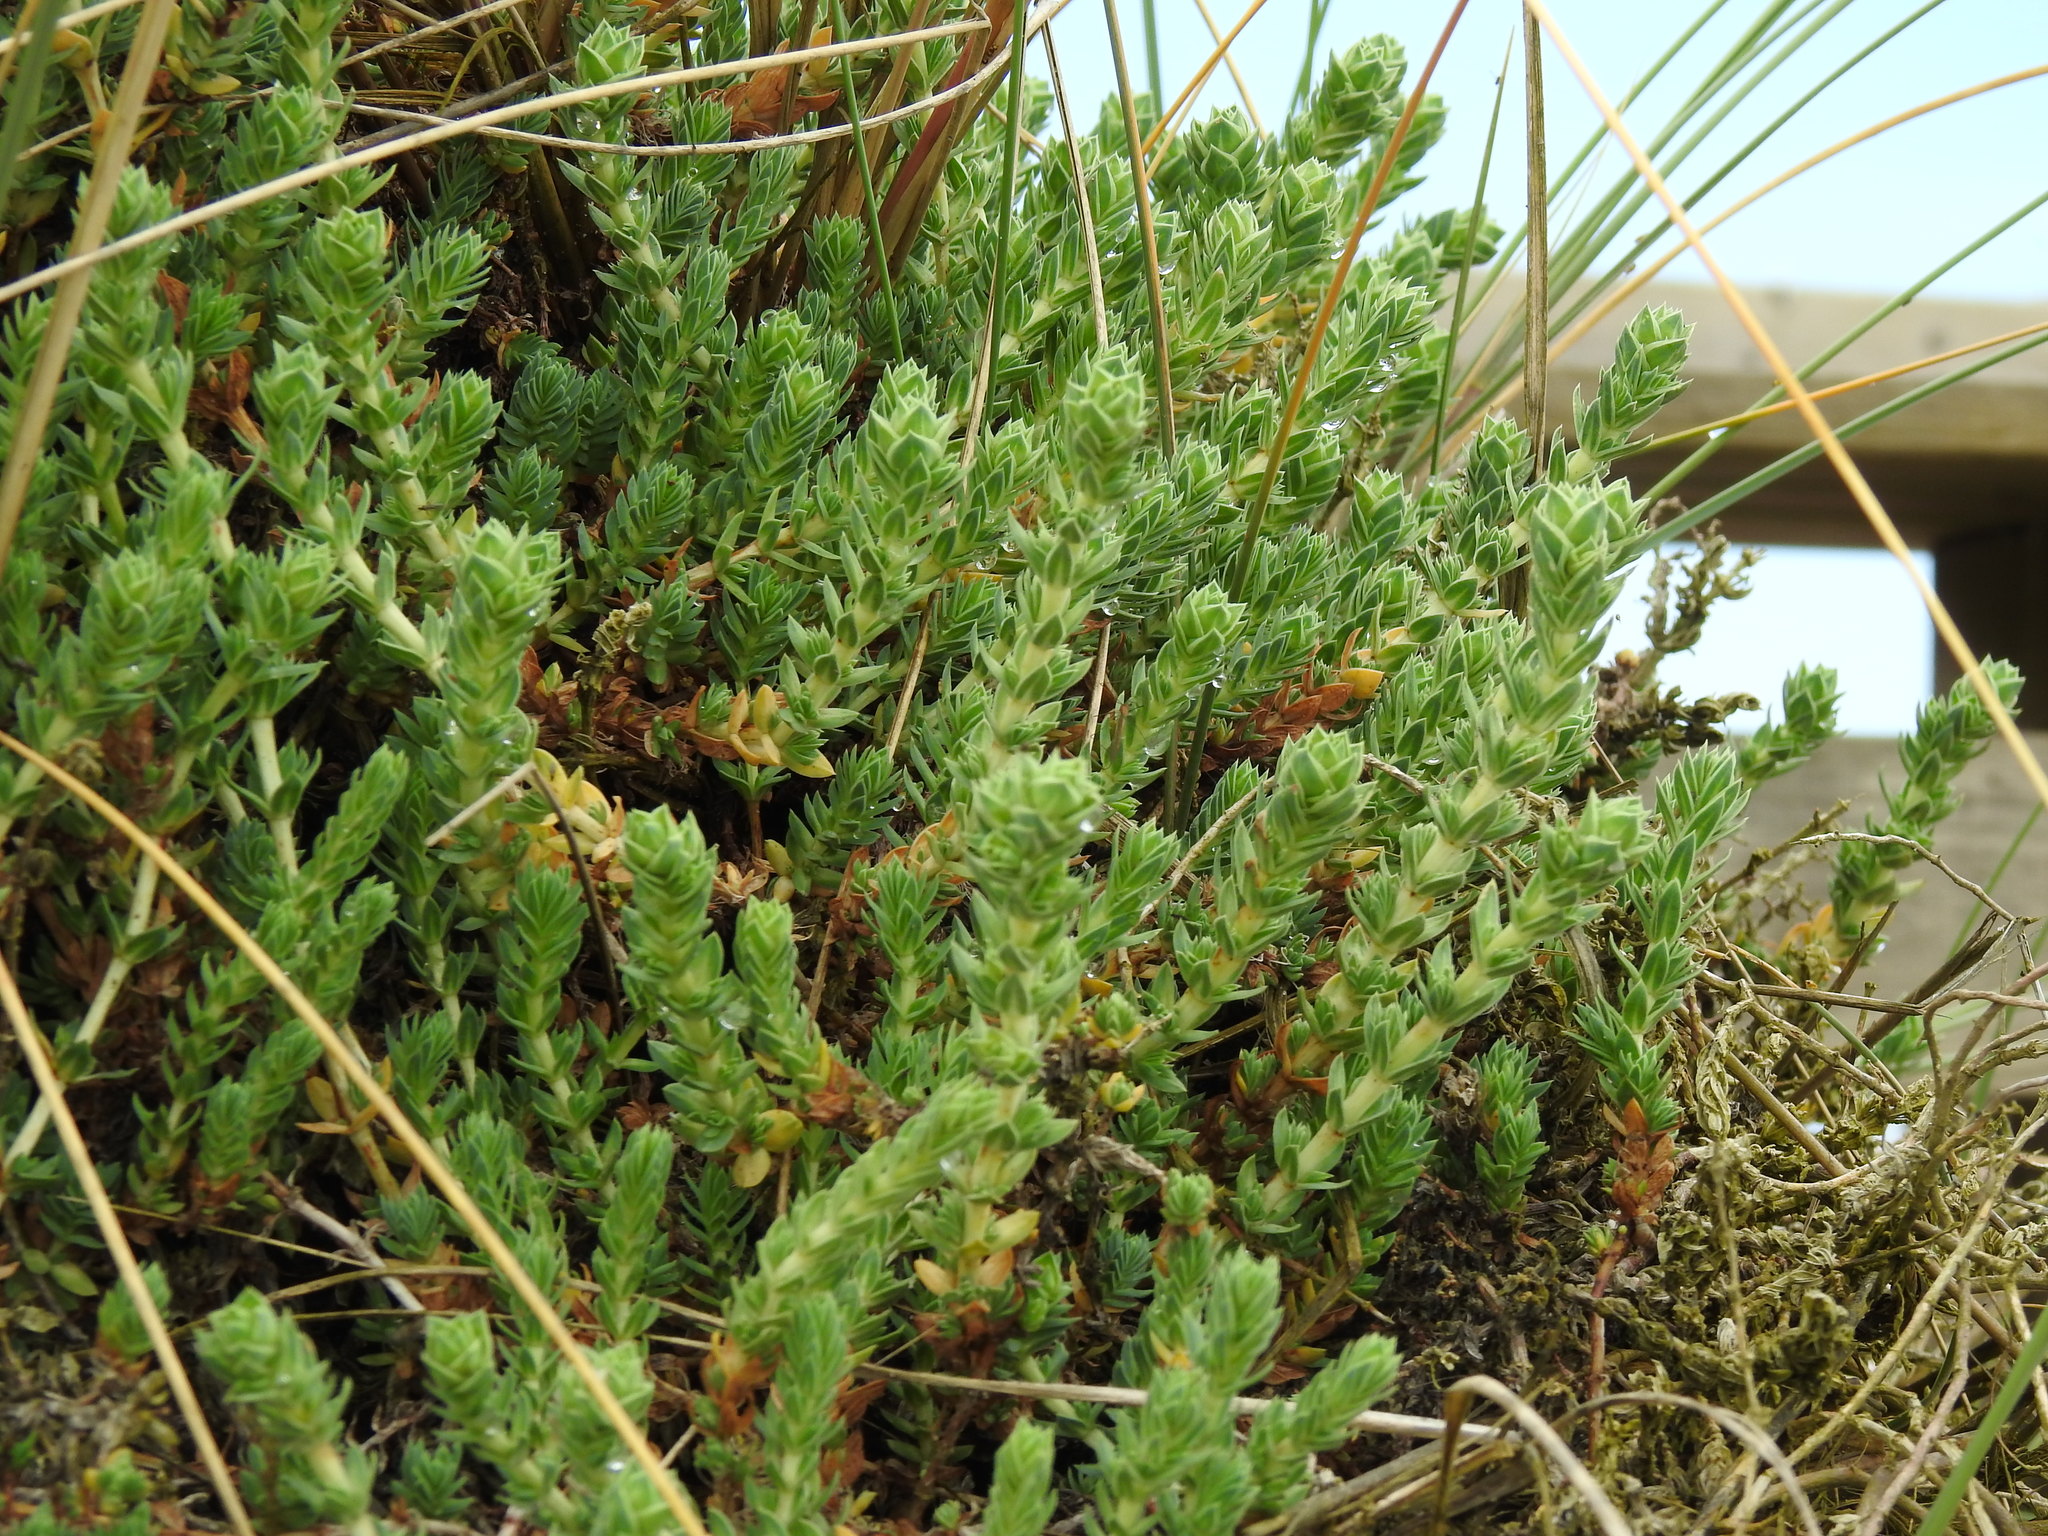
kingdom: Plantae
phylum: Tracheophyta
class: Magnoliopsida
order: Gentianales
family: Rubiaceae
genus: Crucianella
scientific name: Crucianella maritima
